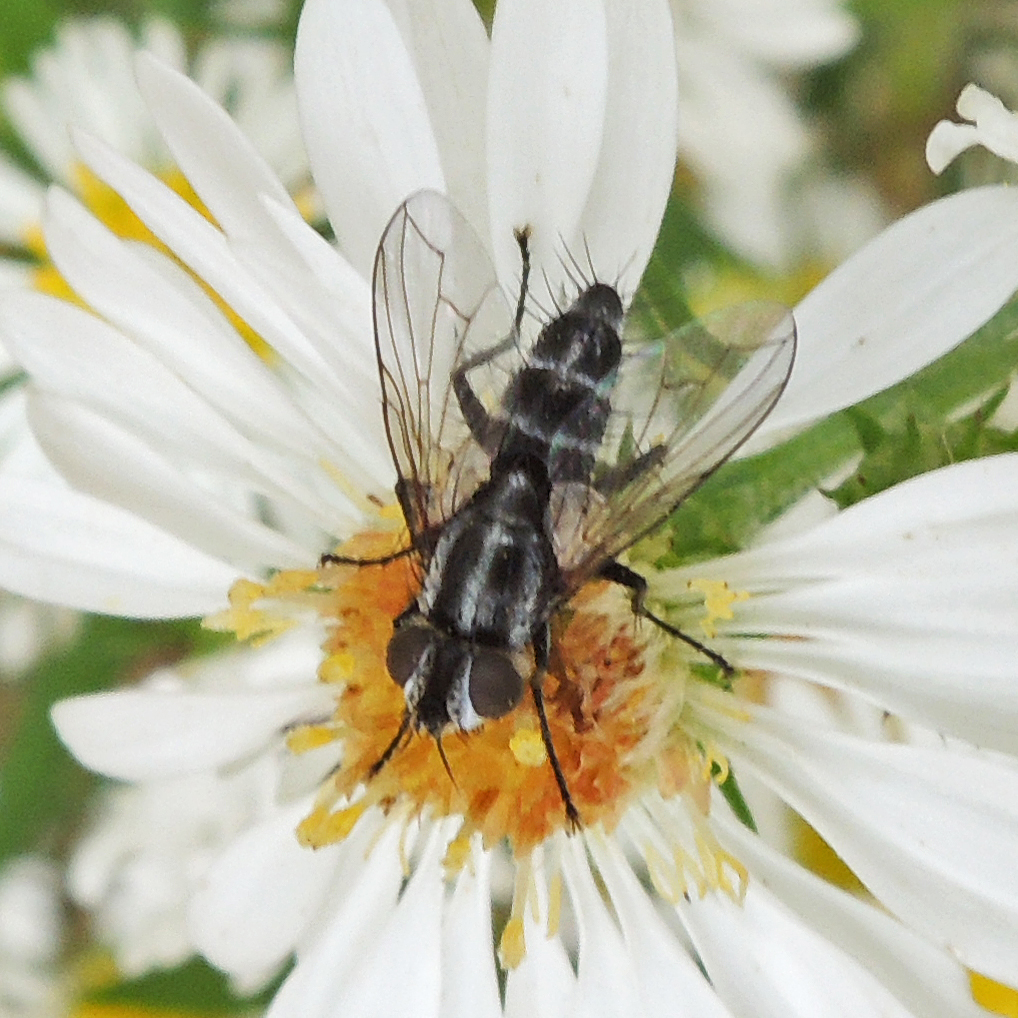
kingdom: Animalia
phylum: Arthropoda
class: Insecta
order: Diptera
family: Tachinidae
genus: Paradidyma
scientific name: Paradidyma singularis
